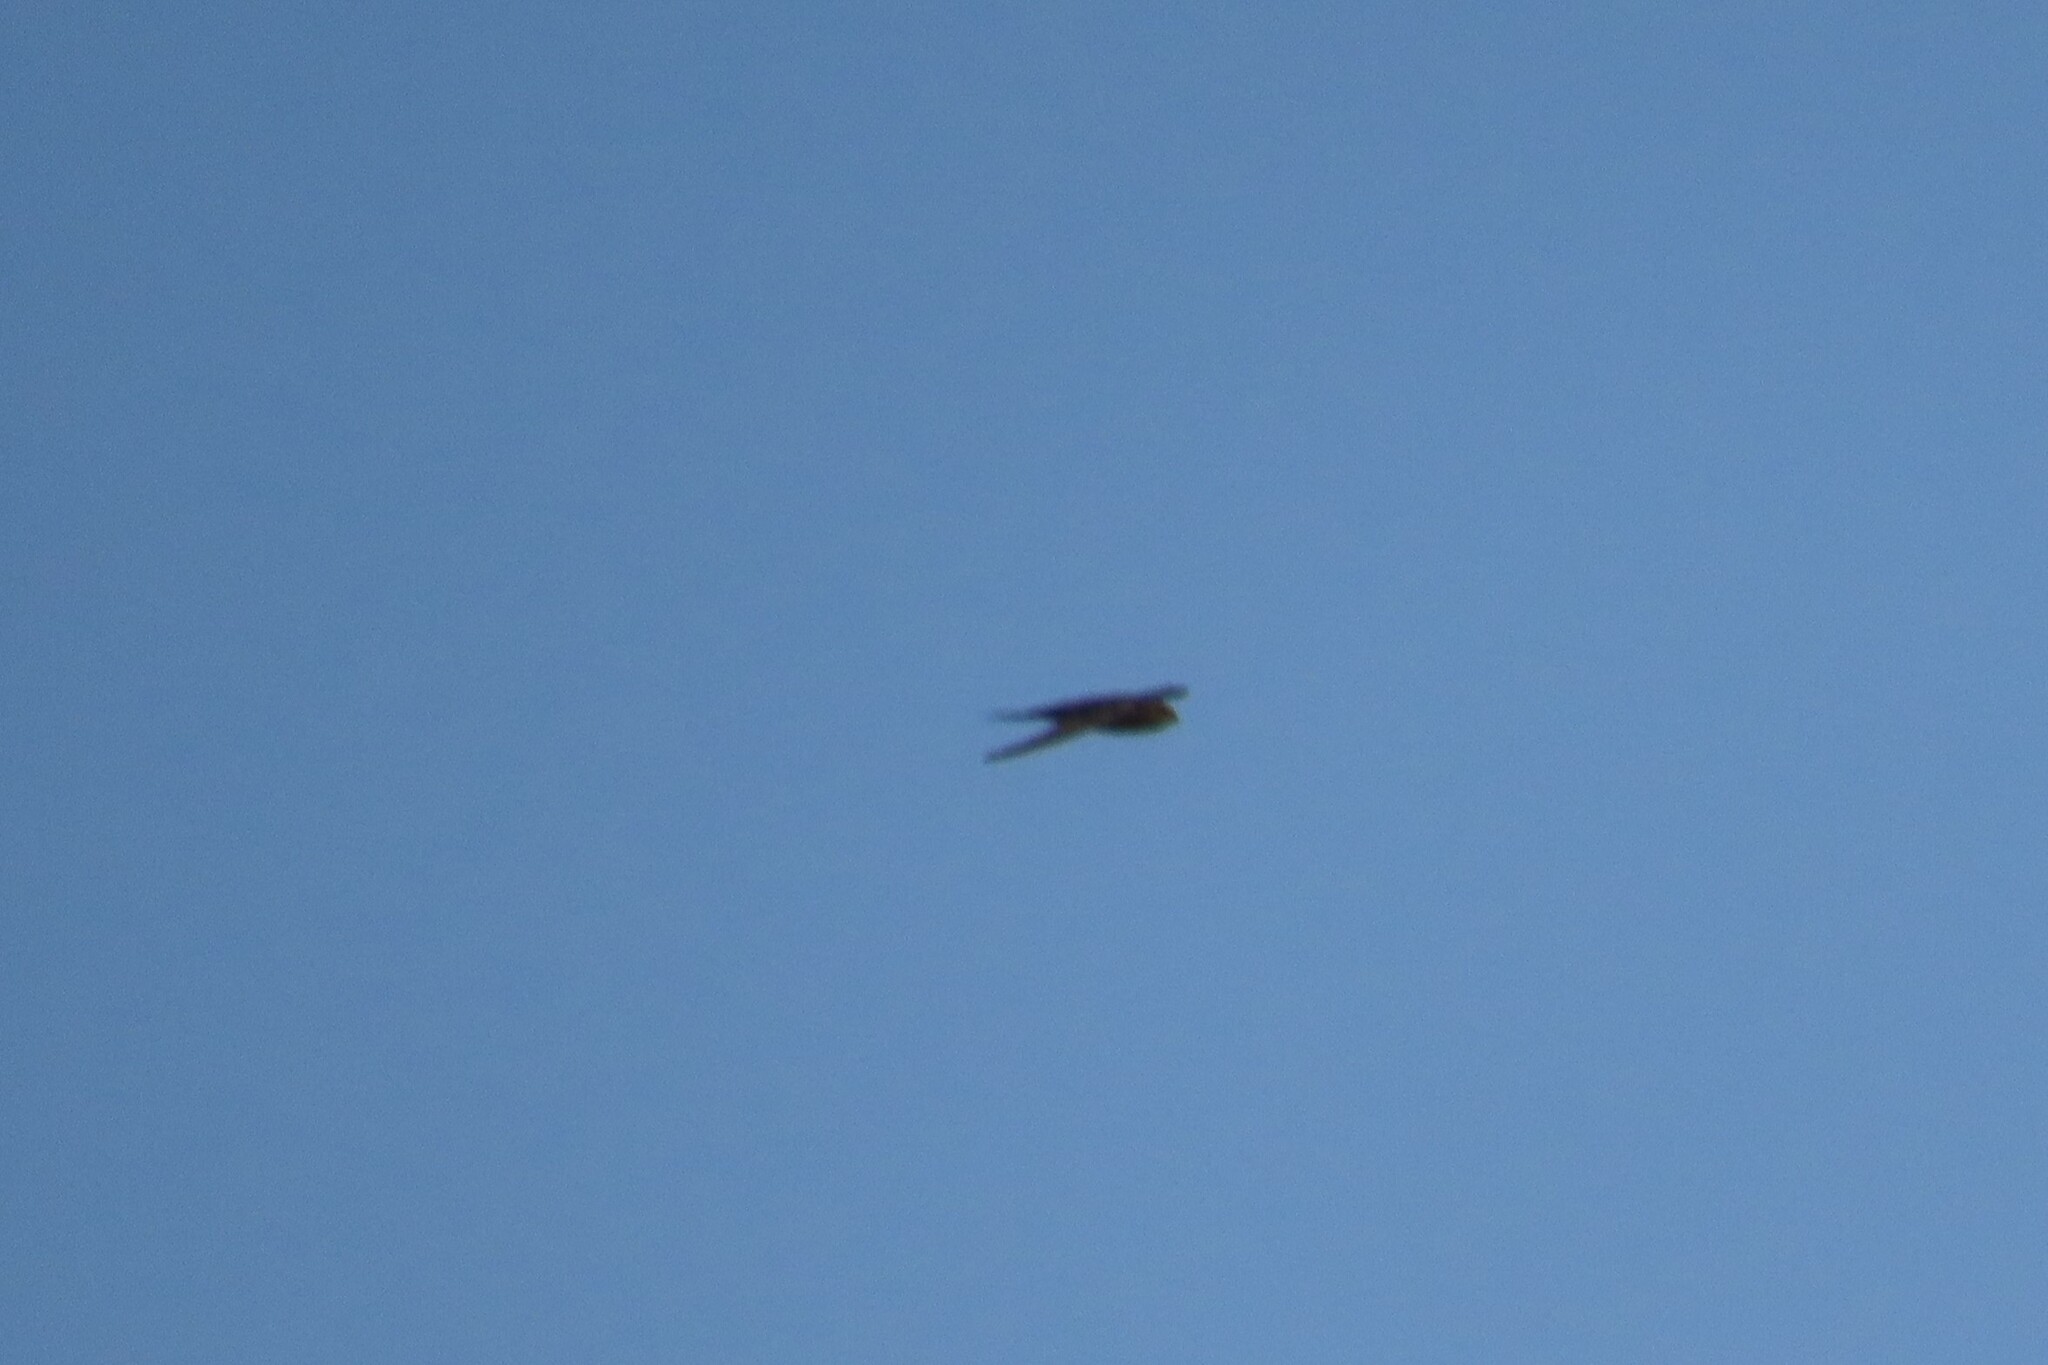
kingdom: Animalia
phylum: Chordata
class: Aves
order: Apodiformes
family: Apodidae
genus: Cypsiurus
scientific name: Cypsiurus balasiensis
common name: Asian palm swift
